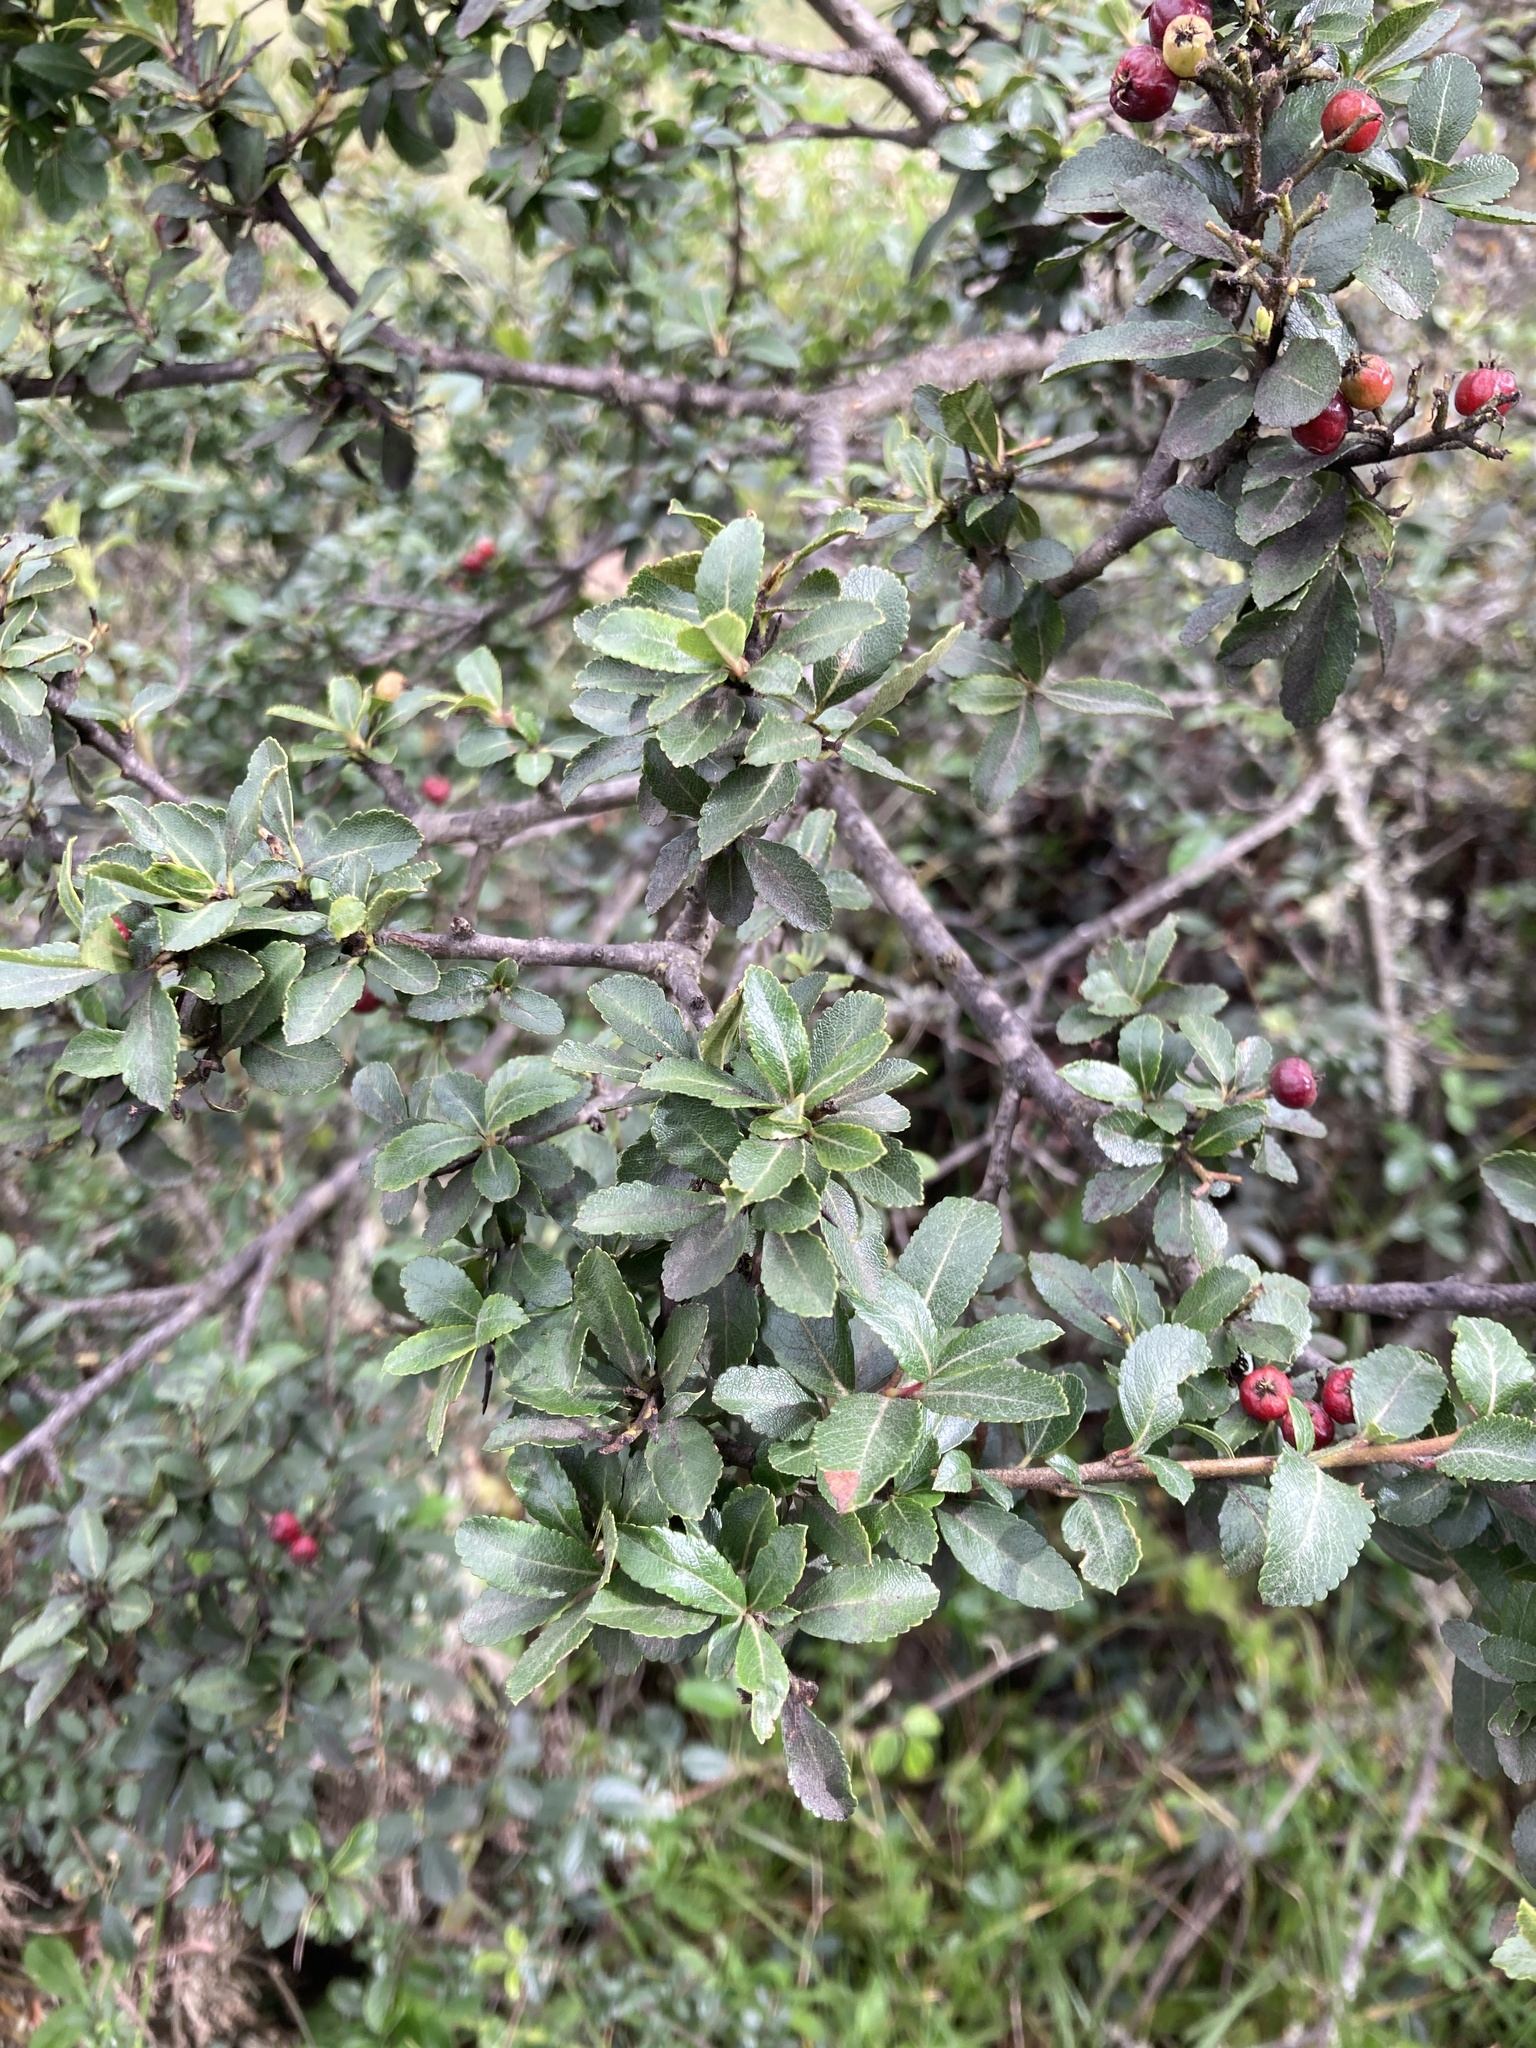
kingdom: Plantae
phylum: Tracheophyta
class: Magnoliopsida
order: Rosales
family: Rosaceae
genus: Hesperomeles
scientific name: Hesperomeles obtusifolia
